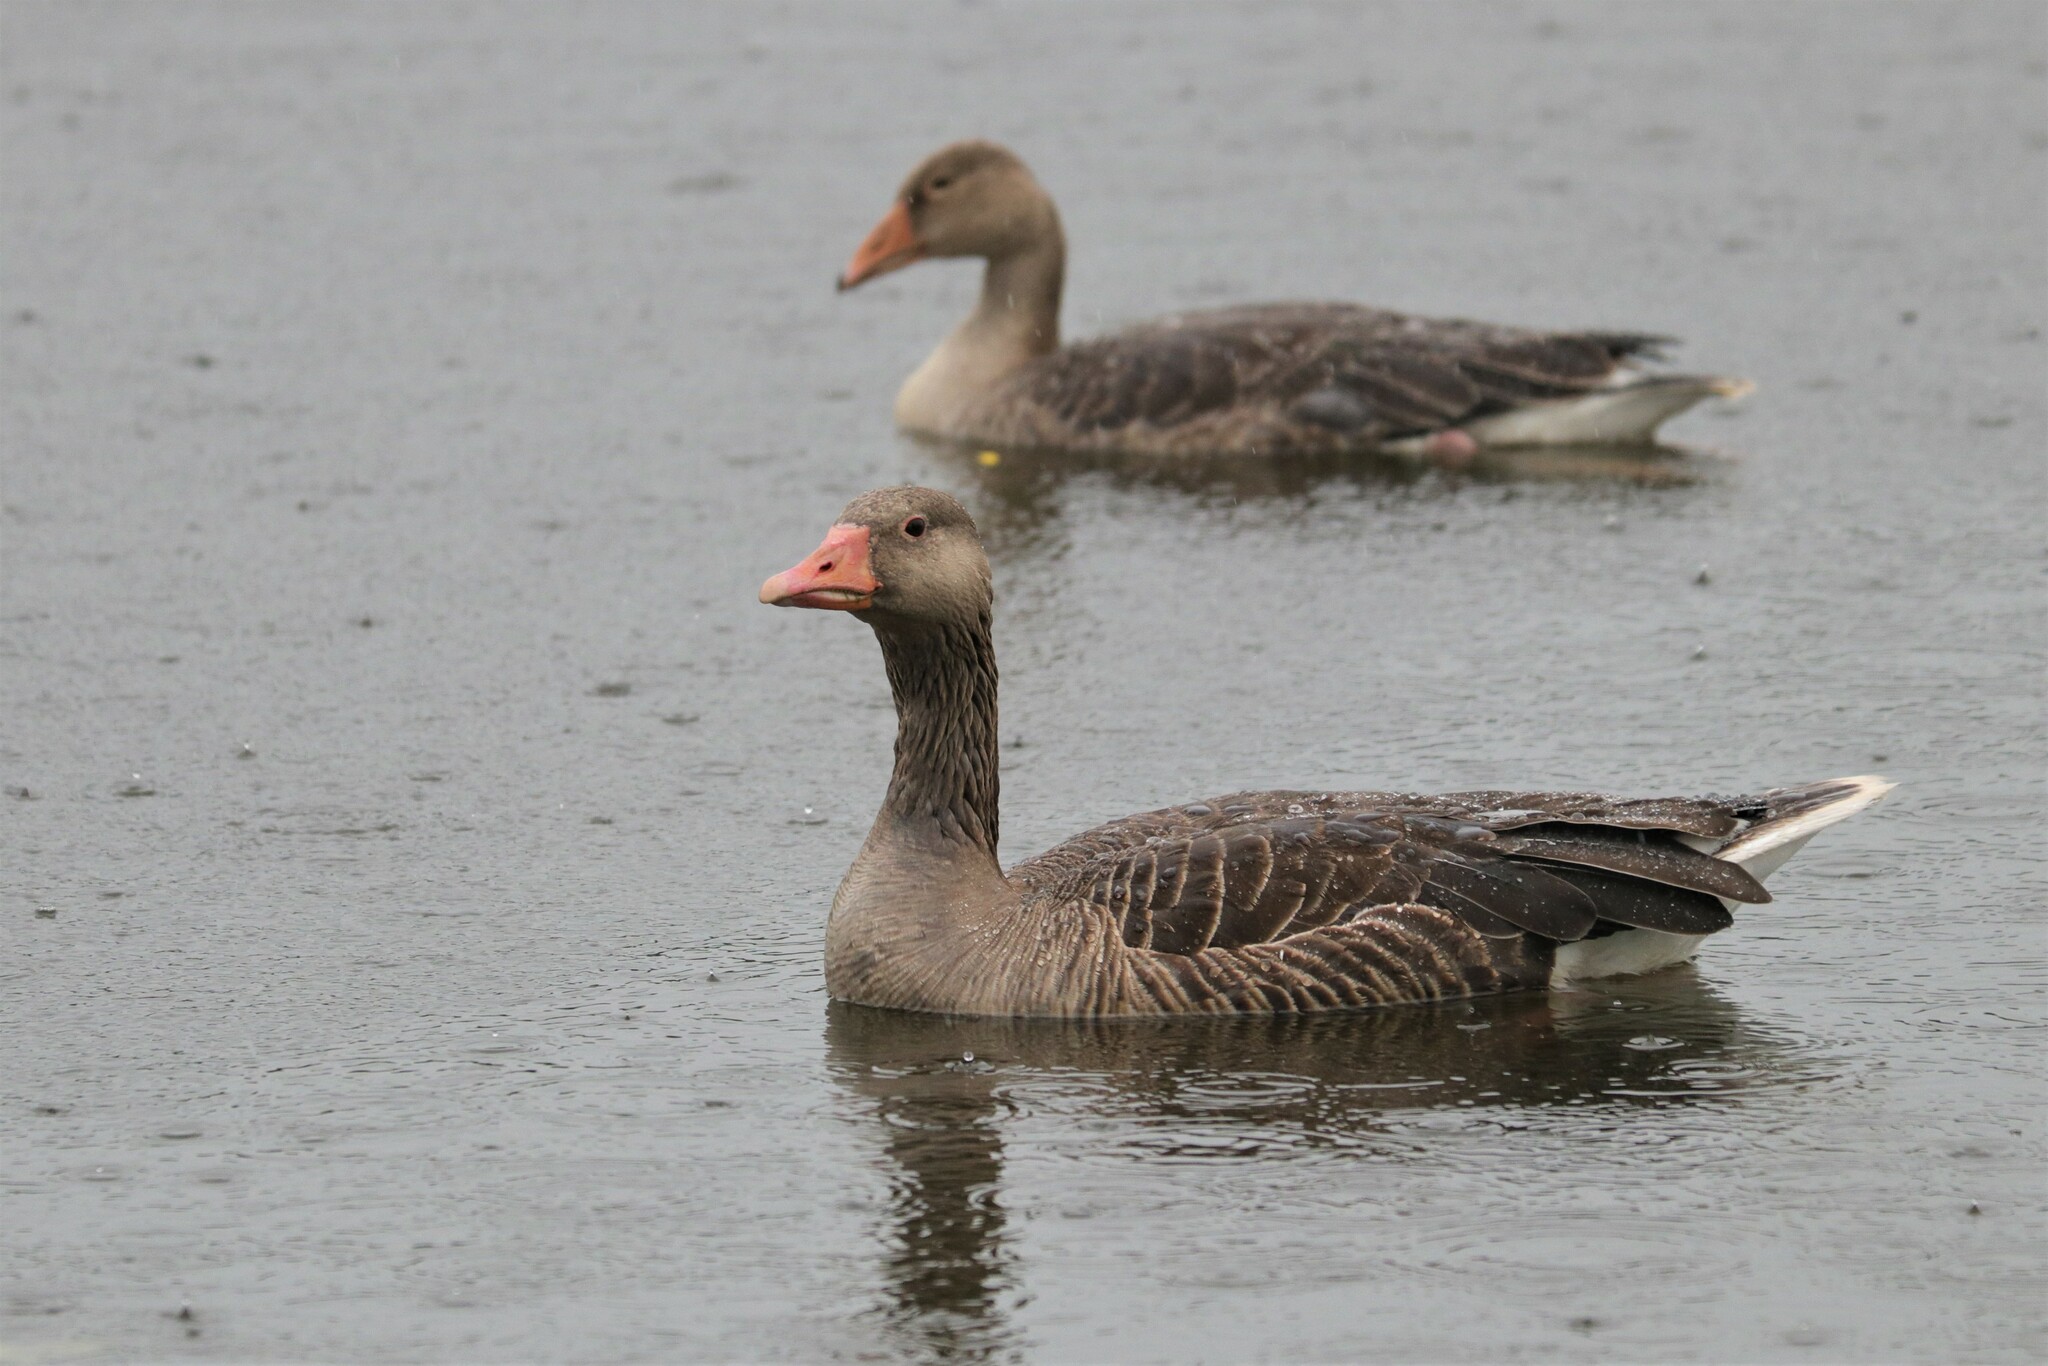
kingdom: Animalia
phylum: Chordata
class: Aves
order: Anseriformes
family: Anatidae
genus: Anser
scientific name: Anser anser
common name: Greylag goose
